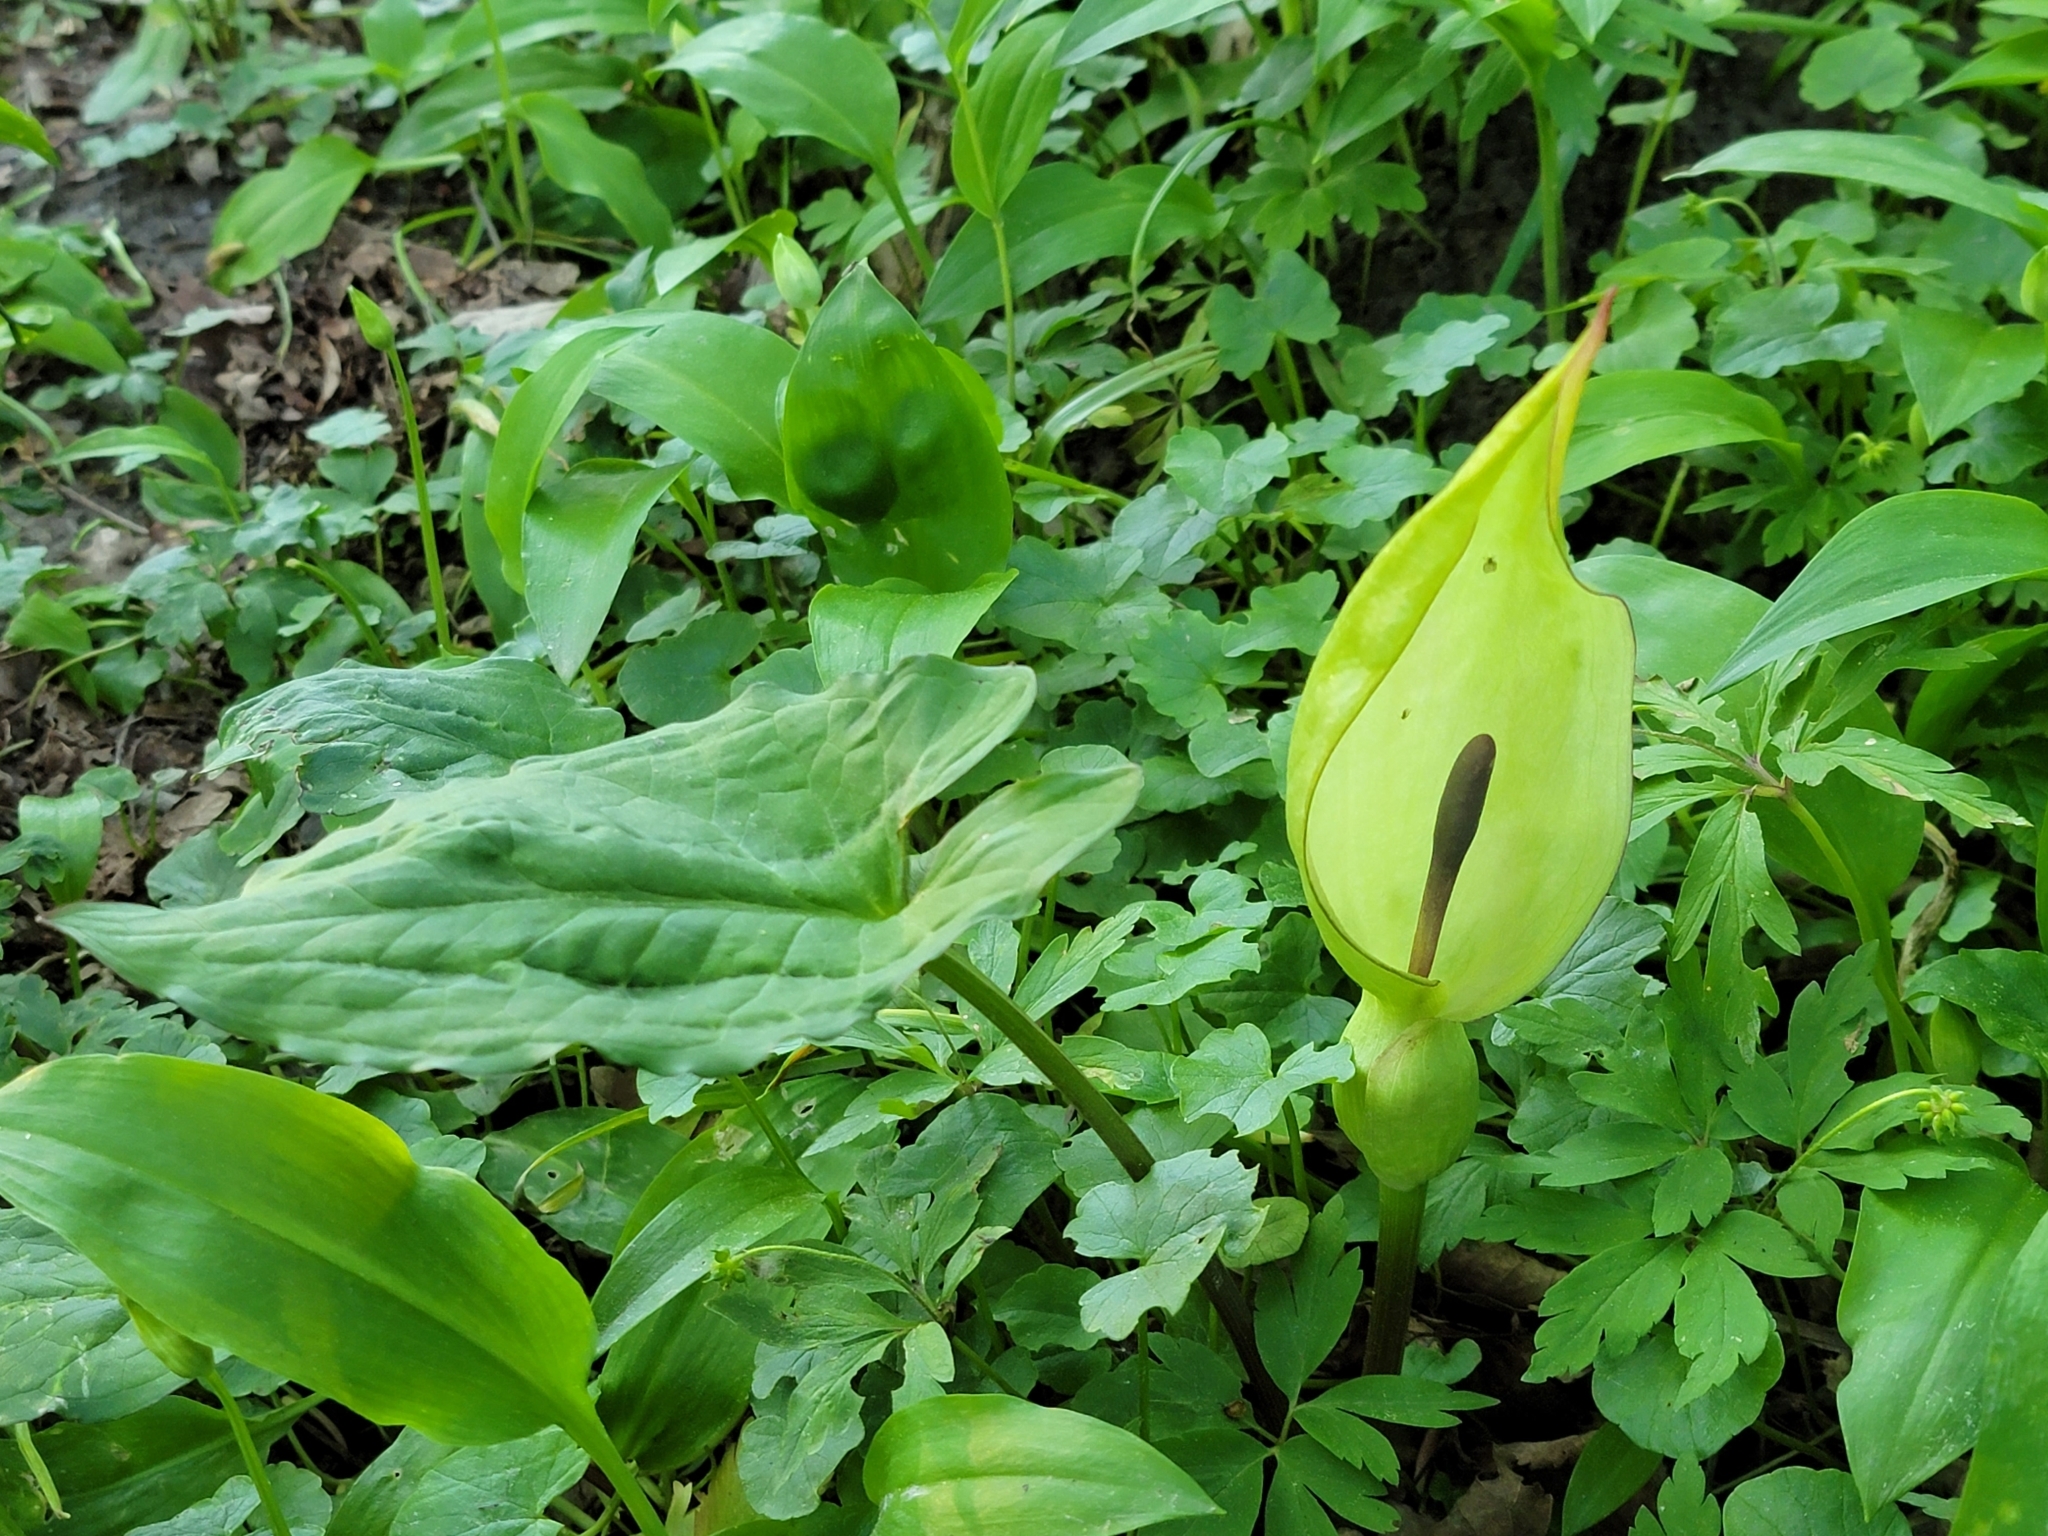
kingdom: Plantae
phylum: Tracheophyta
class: Liliopsida
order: Alismatales
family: Araceae
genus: Arum
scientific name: Arum maculatum
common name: Lords-and-ladies
